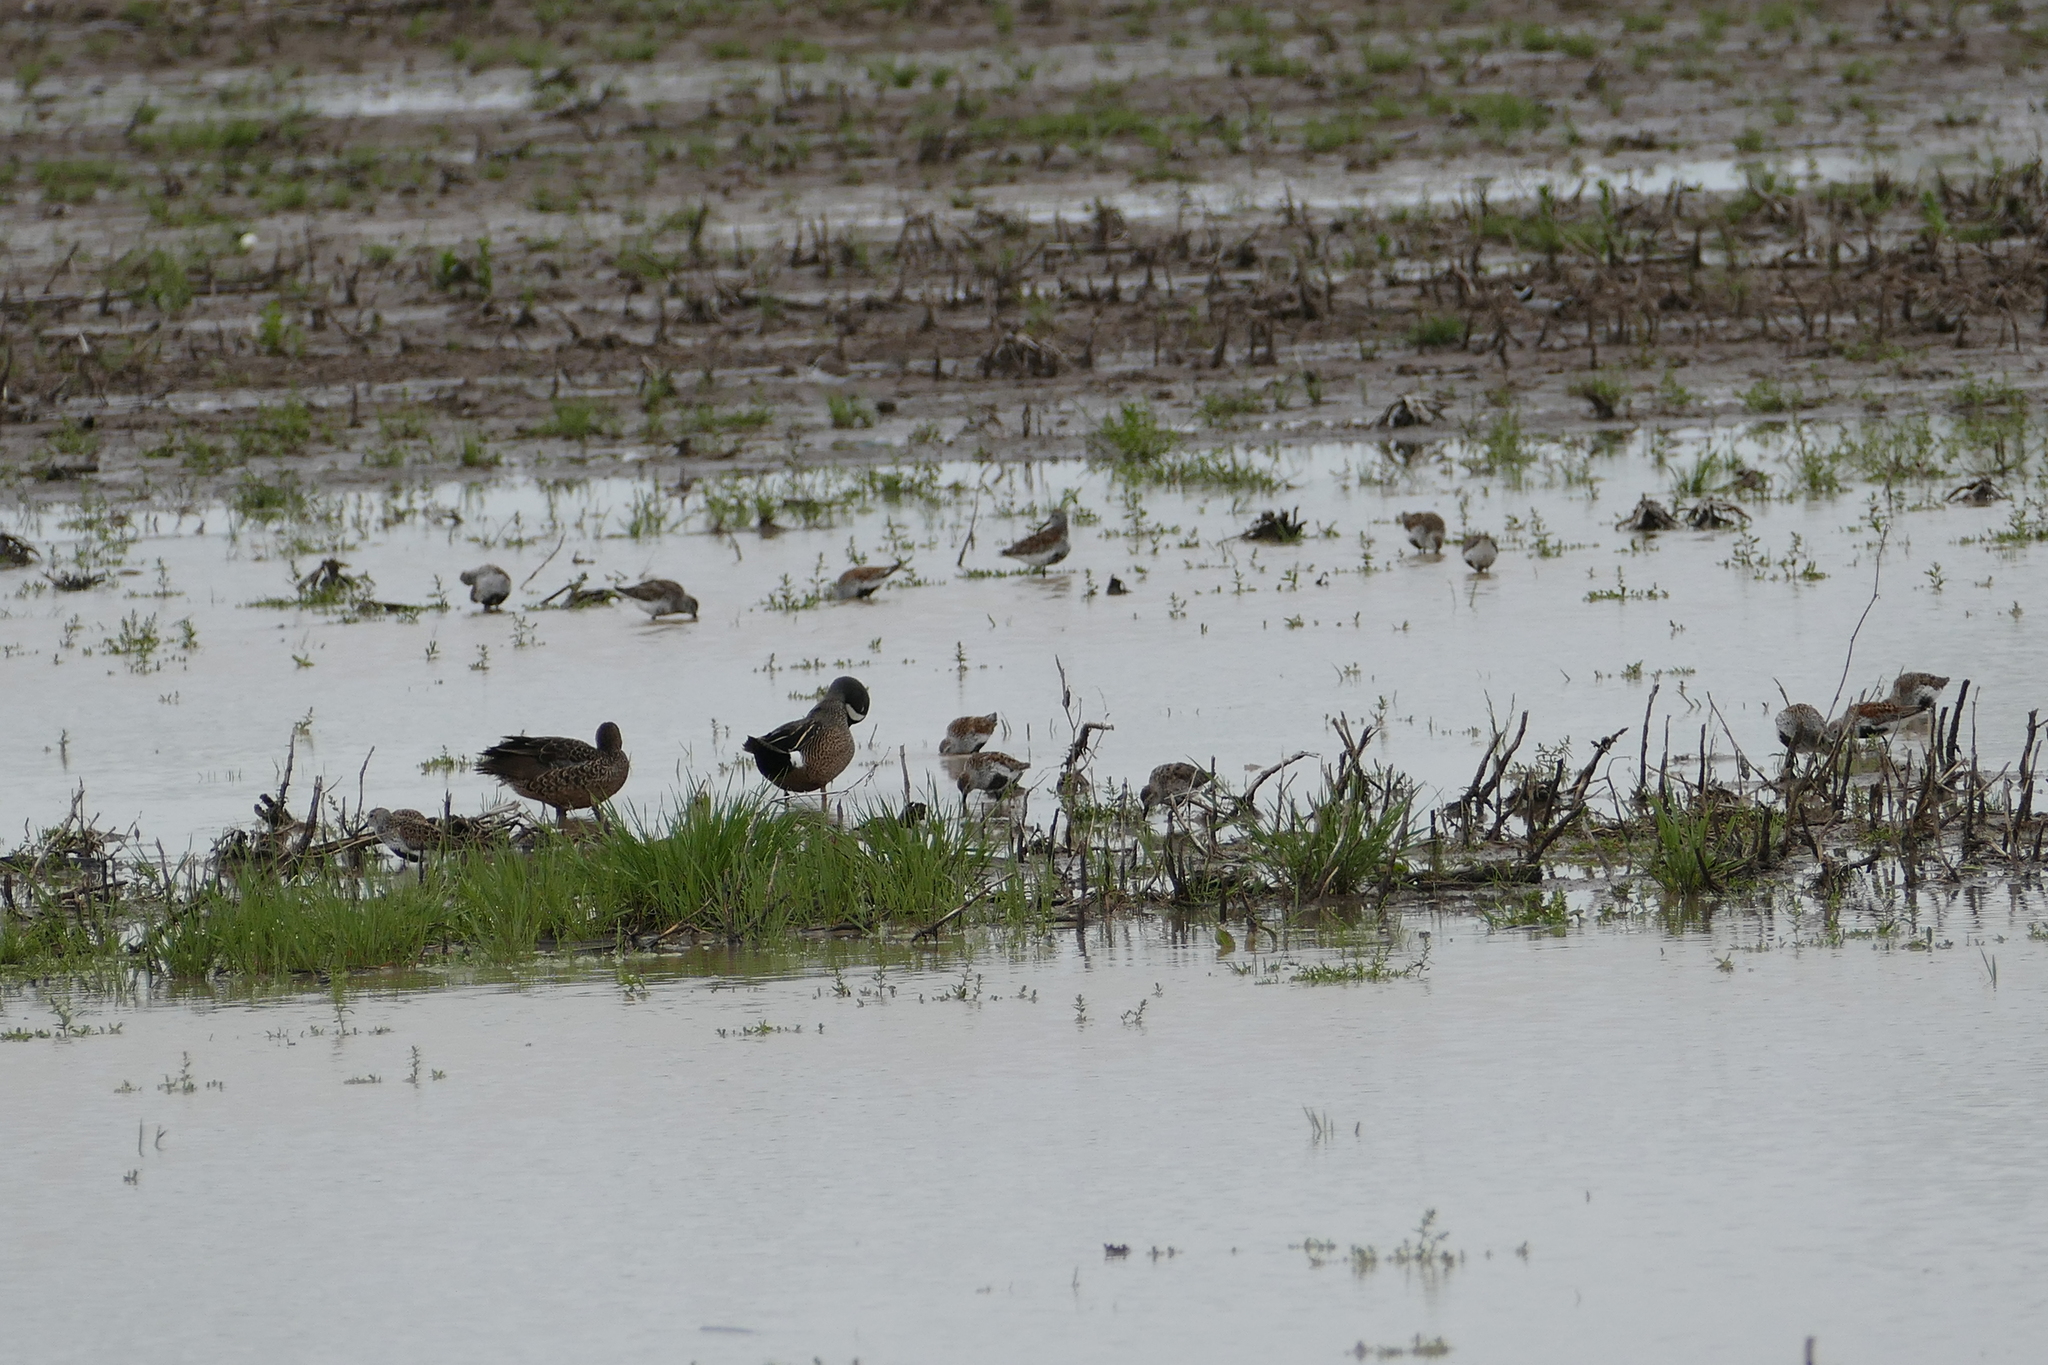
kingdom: Animalia
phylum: Chordata
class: Aves
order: Anseriformes
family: Anatidae
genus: Spatula
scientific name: Spatula discors
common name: Blue-winged teal
